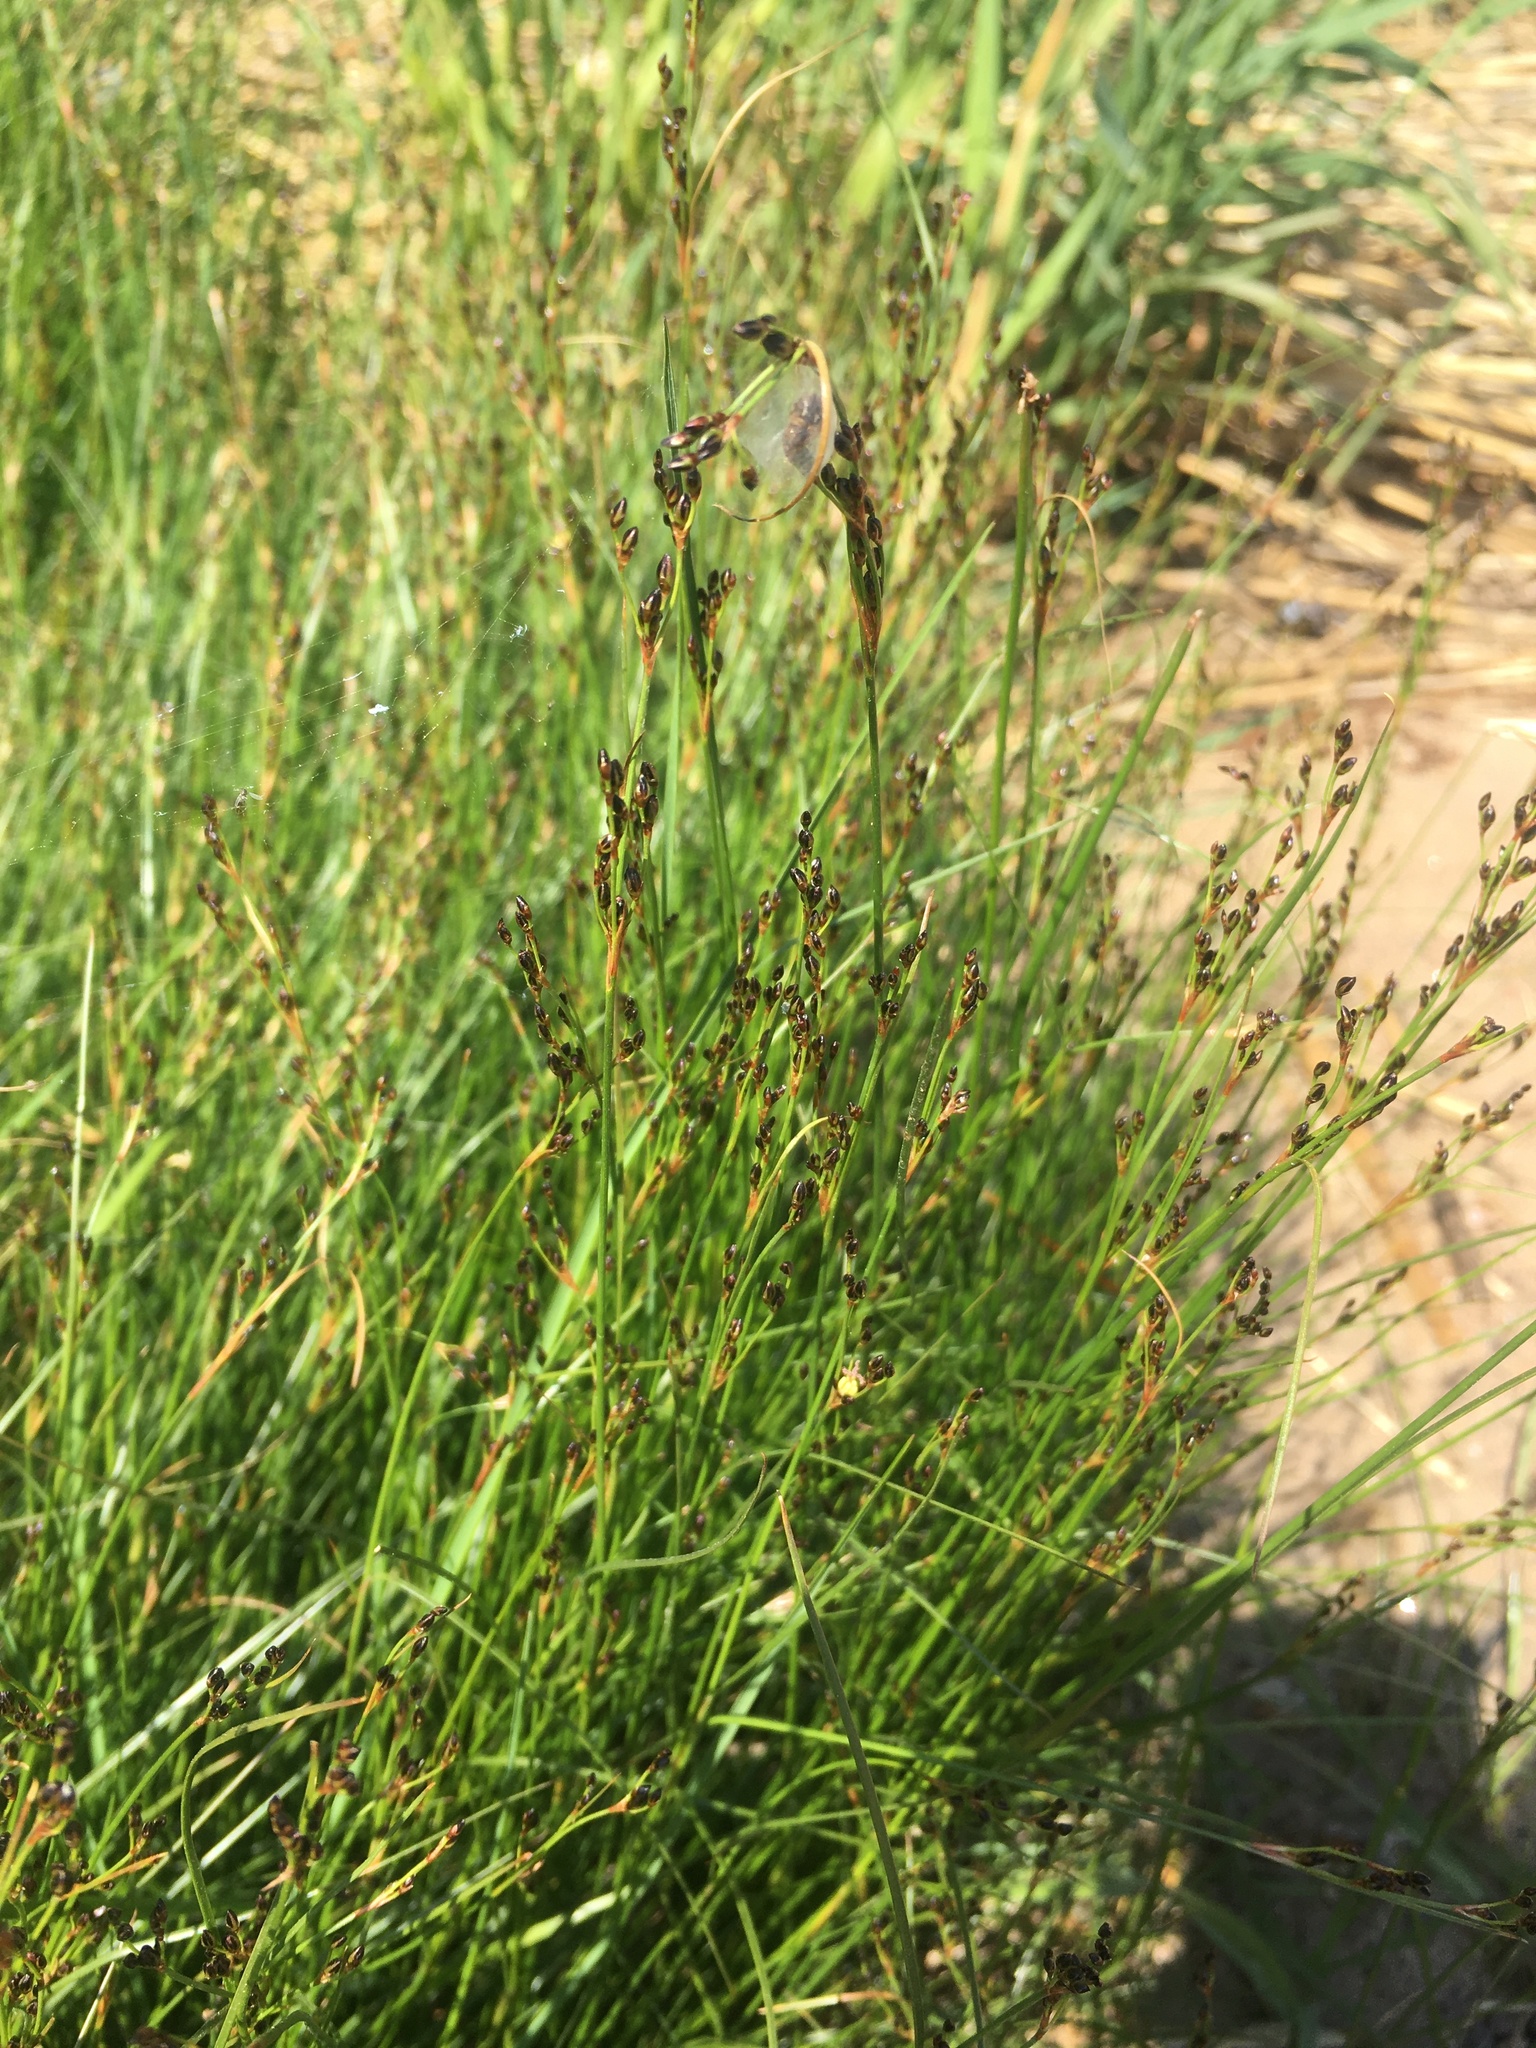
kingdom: Plantae
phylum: Tracheophyta
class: Liliopsida
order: Poales
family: Juncaceae
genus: Juncus
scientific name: Juncus gerardi
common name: Saltmarsh rush
